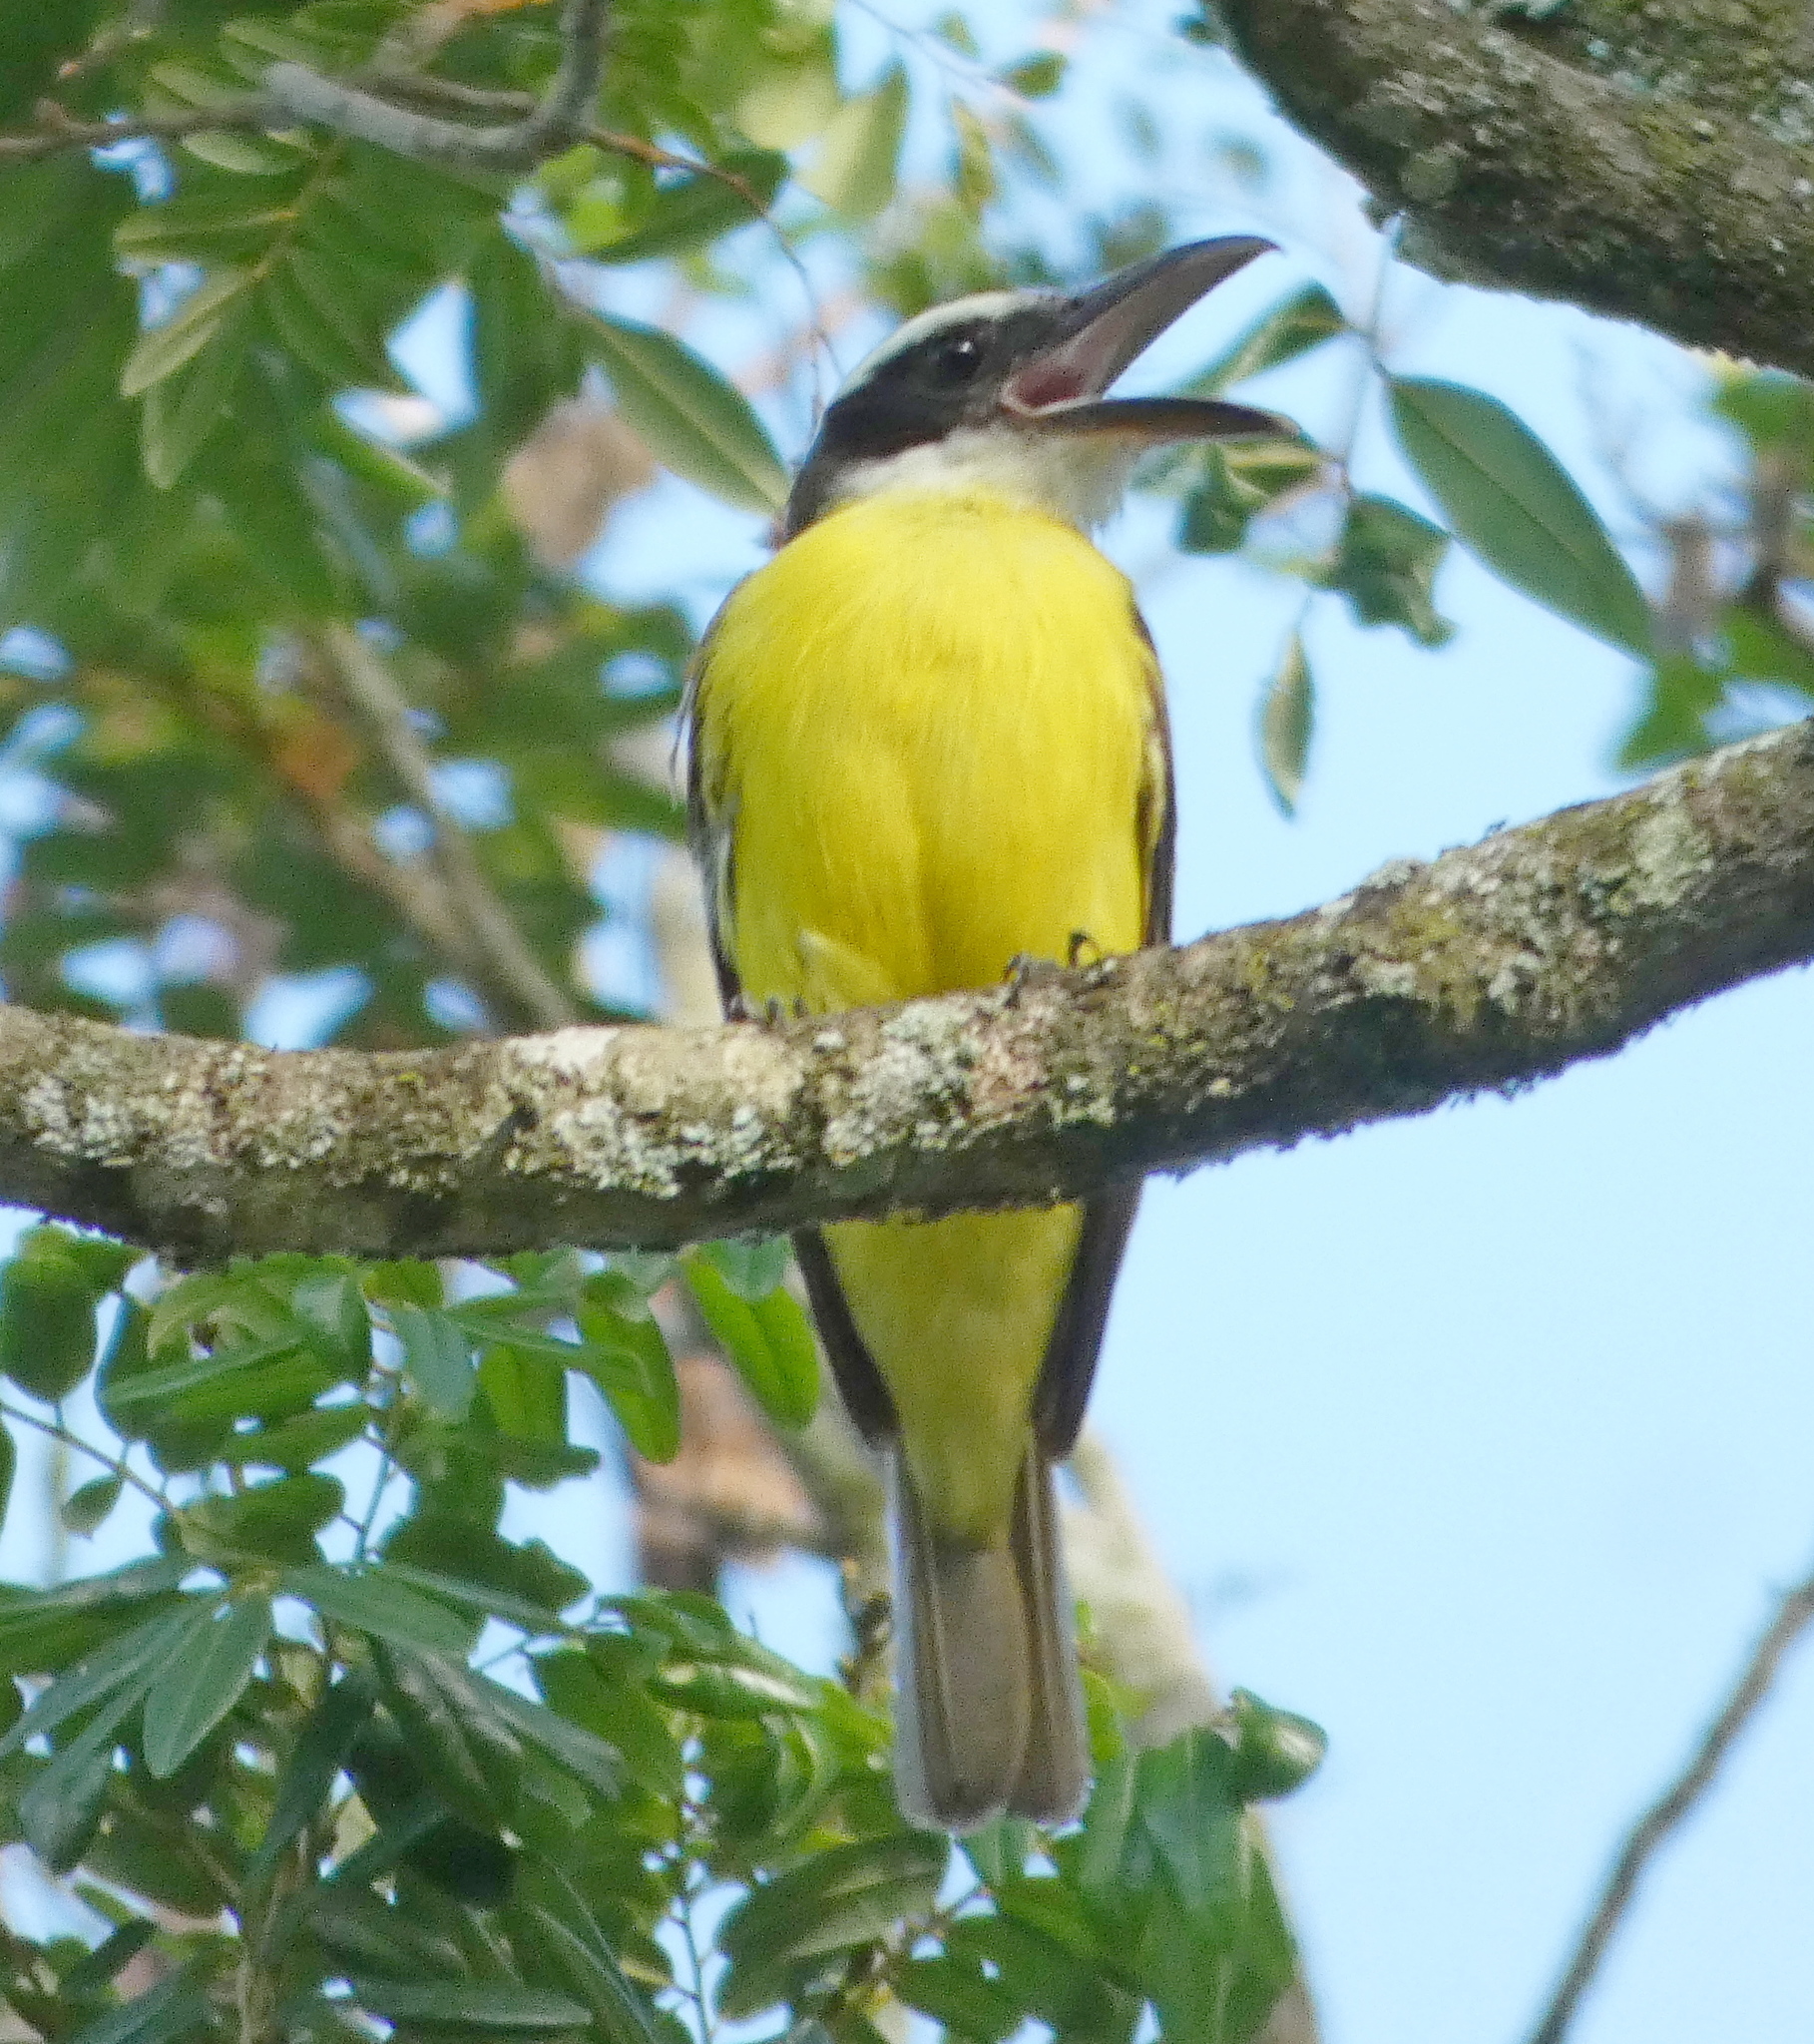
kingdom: Animalia
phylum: Chordata
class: Aves
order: Passeriformes
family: Tyrannidae
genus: Megarynchus
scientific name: Megarynchus pitangua
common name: Boat-billed flycatcher
